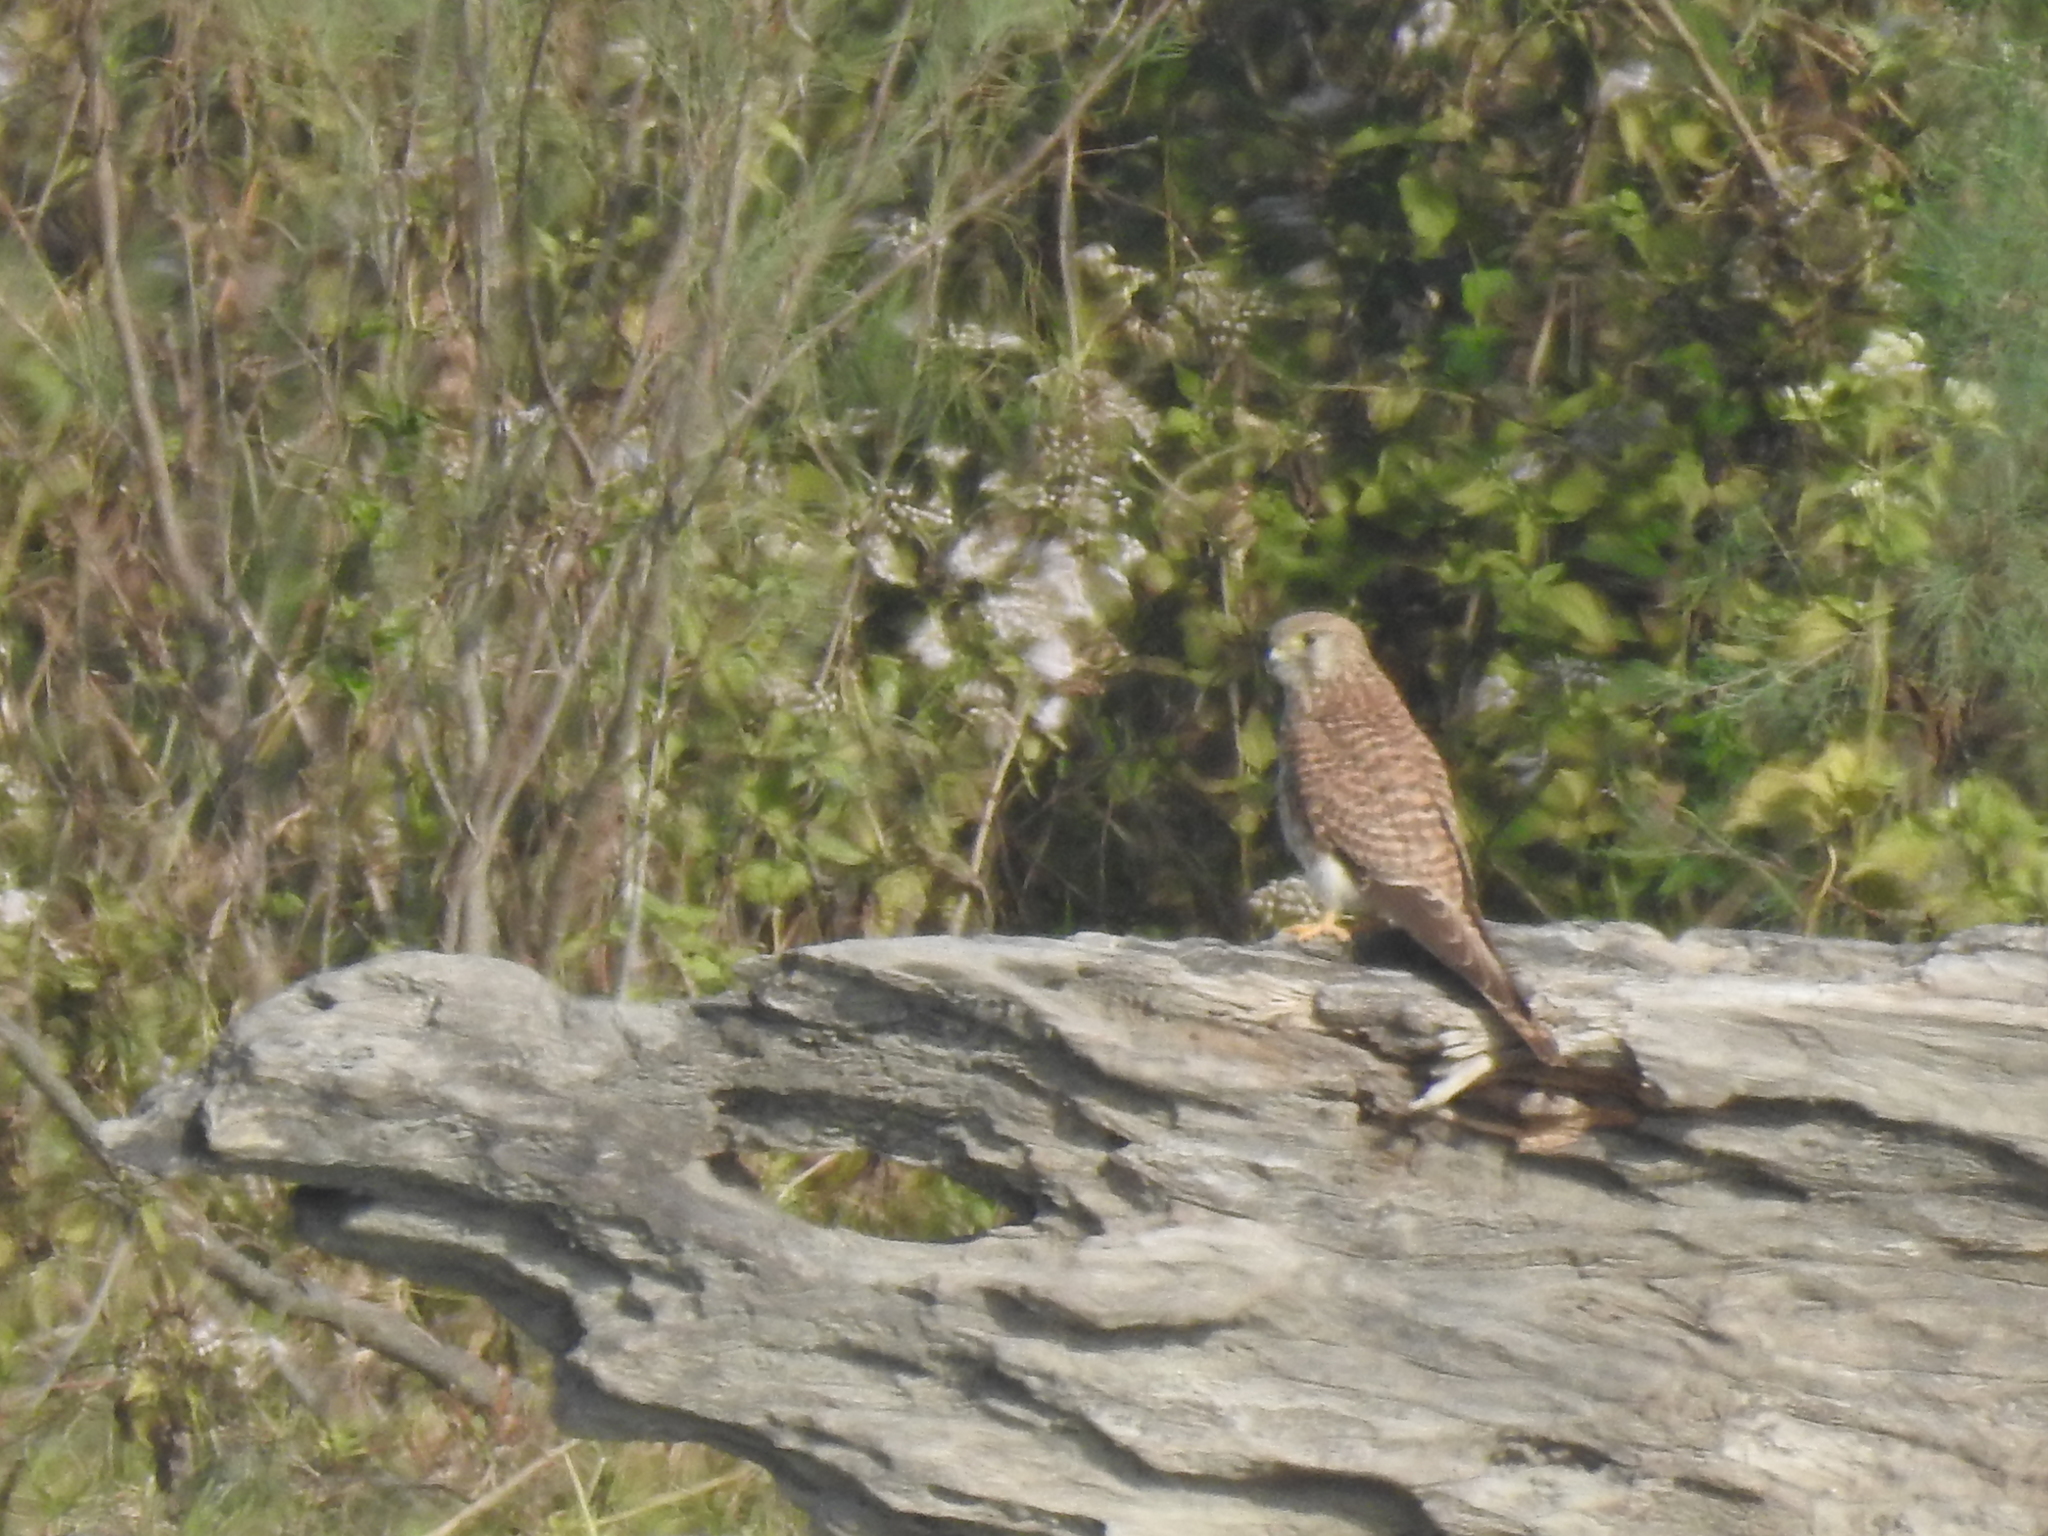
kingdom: Animalia
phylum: Chordata
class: Aves
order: Falconiformes
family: Falconidae
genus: Falco
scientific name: Falco tinnunculus
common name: Common kestrel
